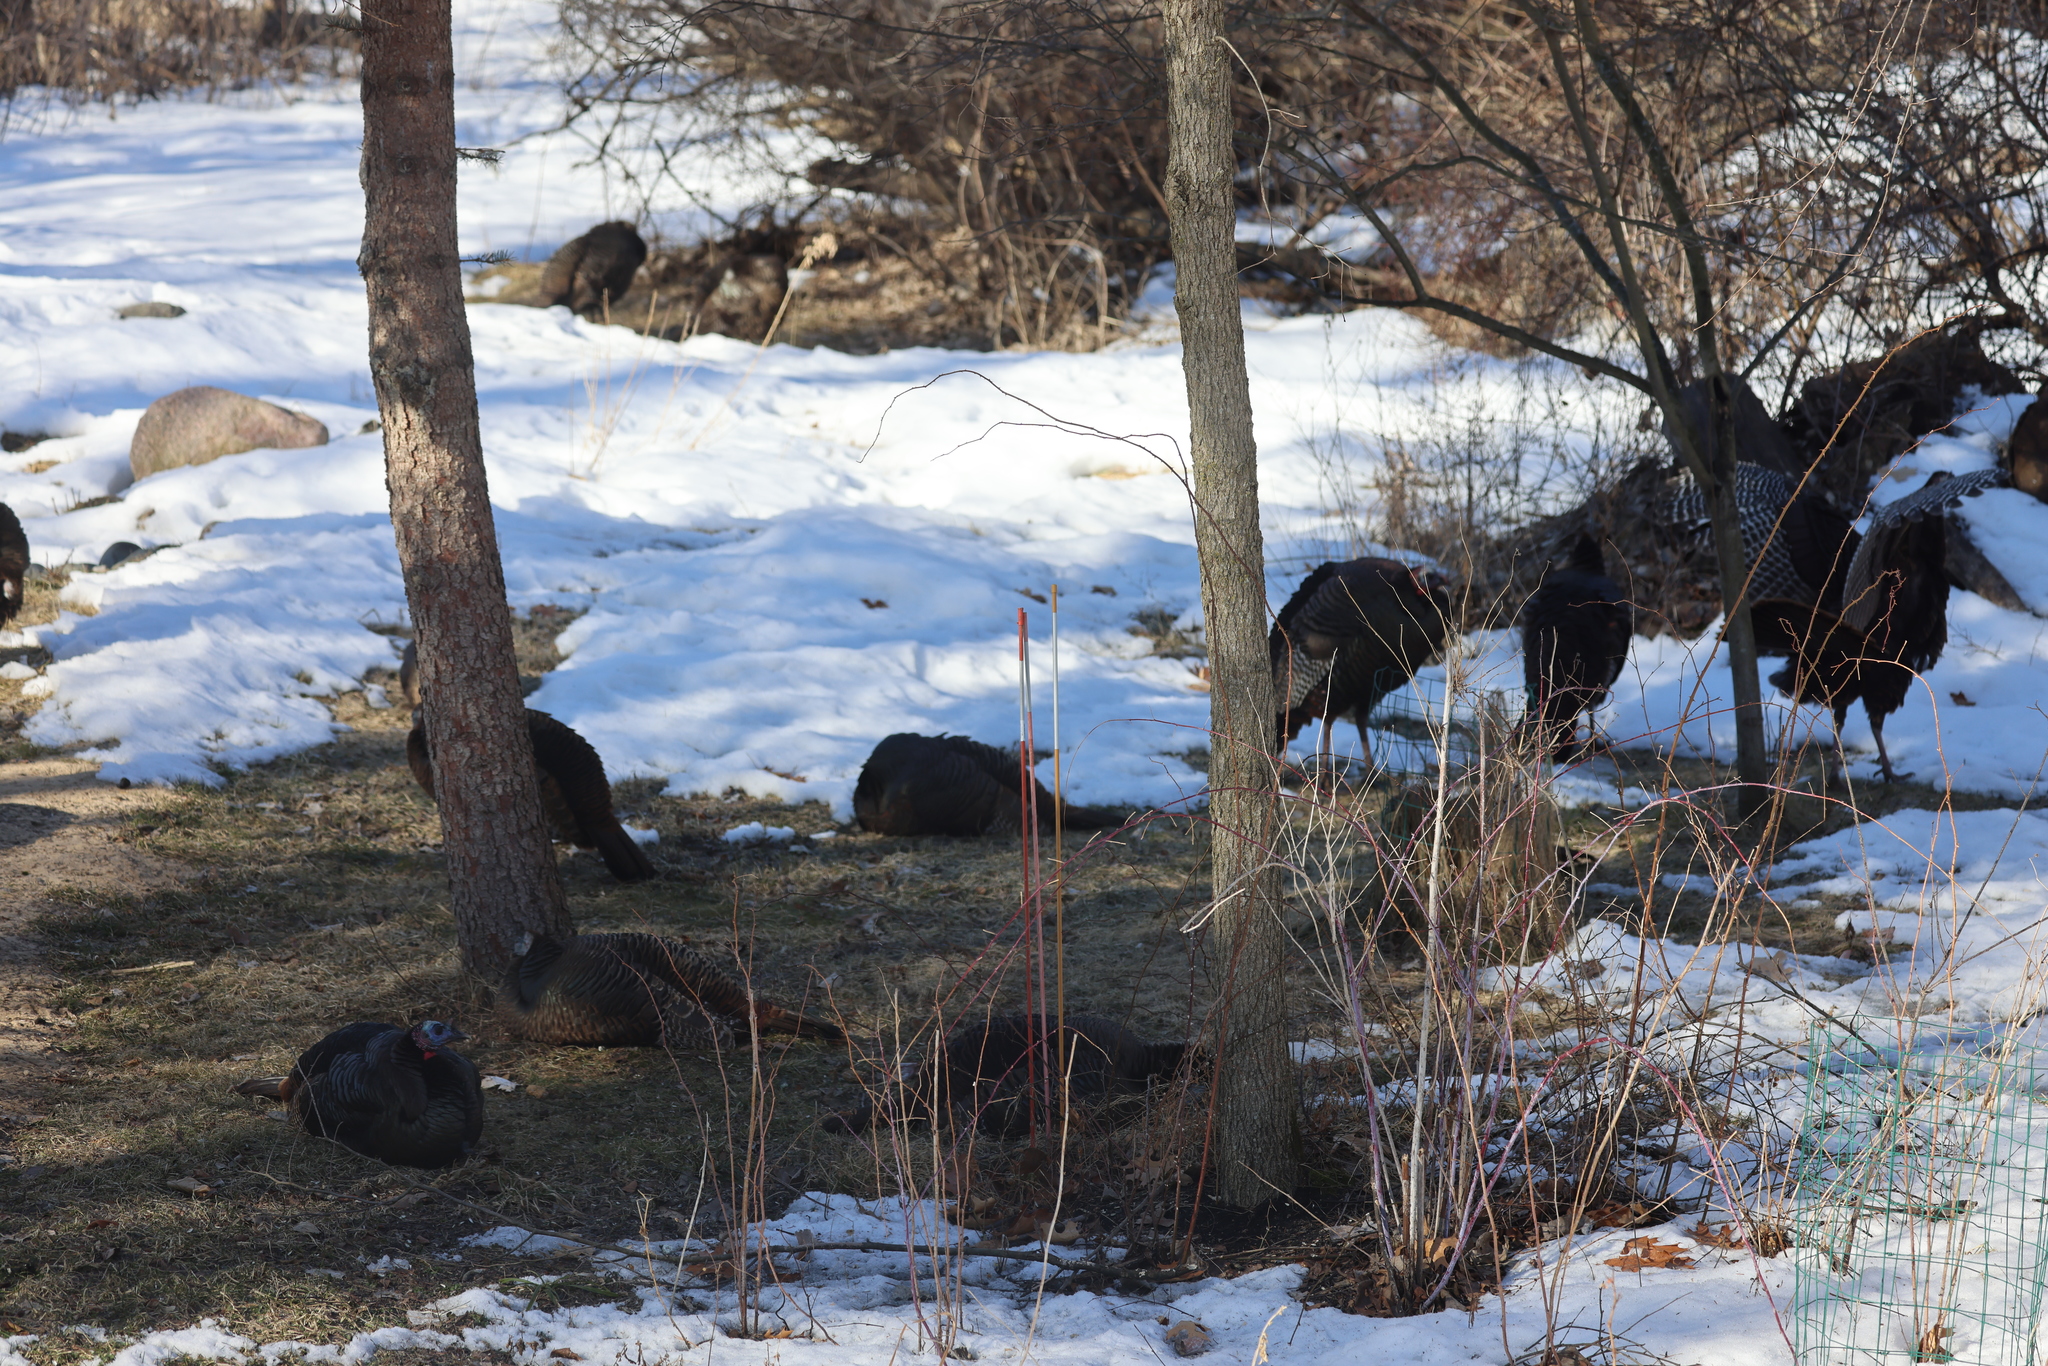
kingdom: Animalia
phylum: Chordata
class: Aves
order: Galliformes
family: Phasianidae
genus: Meleagris
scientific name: Meleagris gallopavo
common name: Wild turkey
